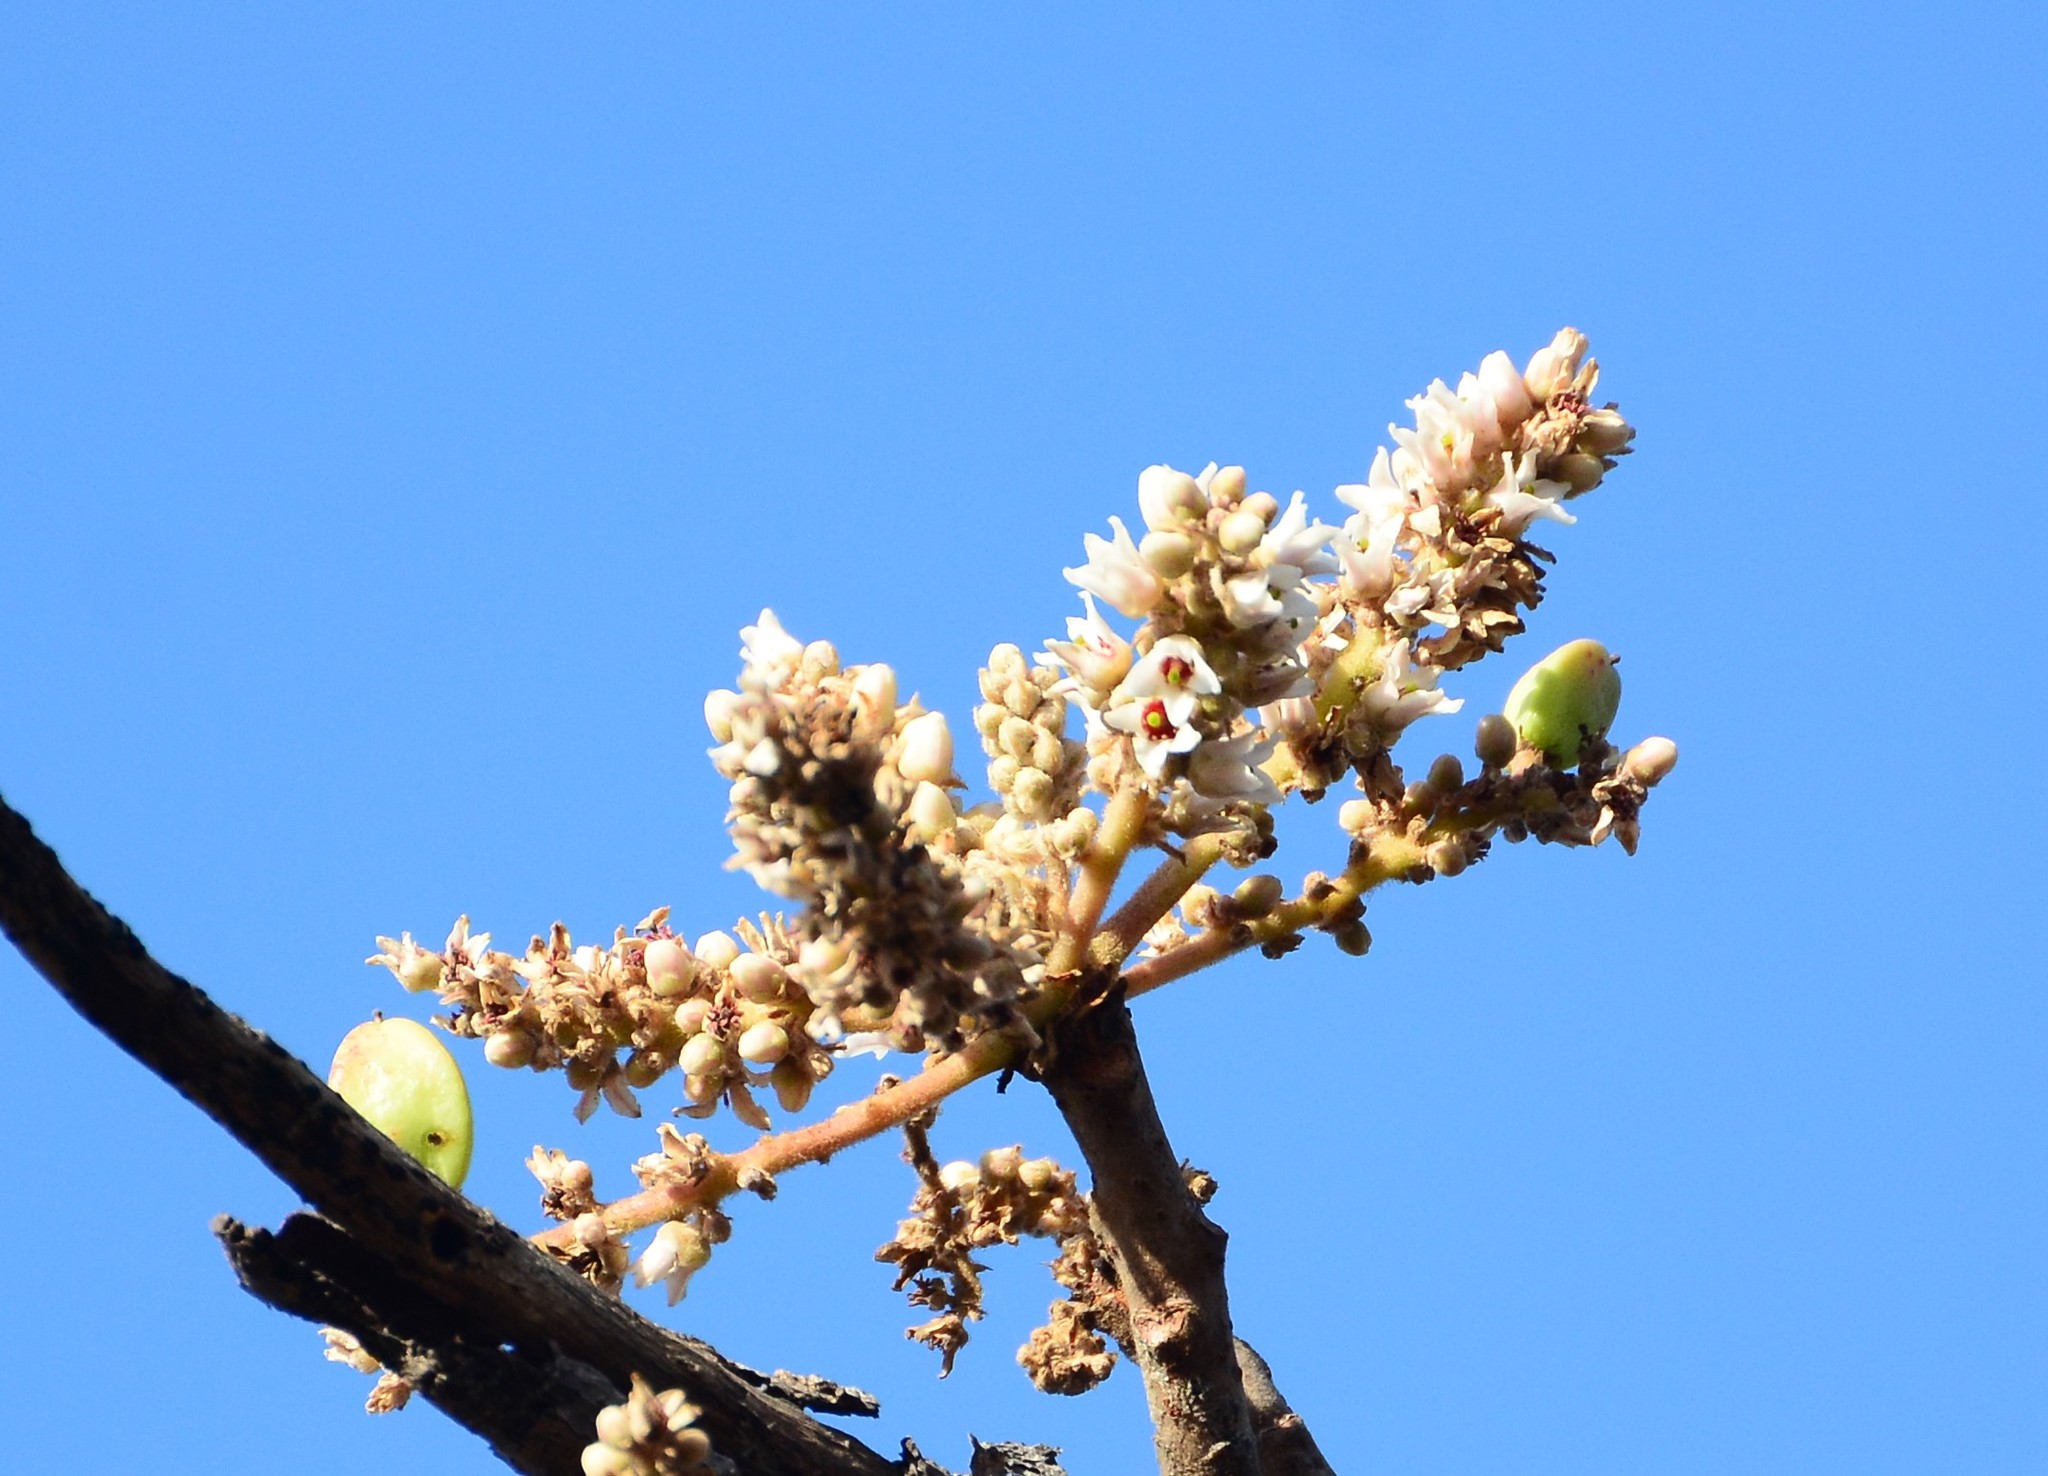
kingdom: Plantae
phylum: Tracheophyta
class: Magnoliopsida
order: Sapindales
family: Burseraceae
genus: Boswellia
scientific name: Boswellia serrata
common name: Boswellia
